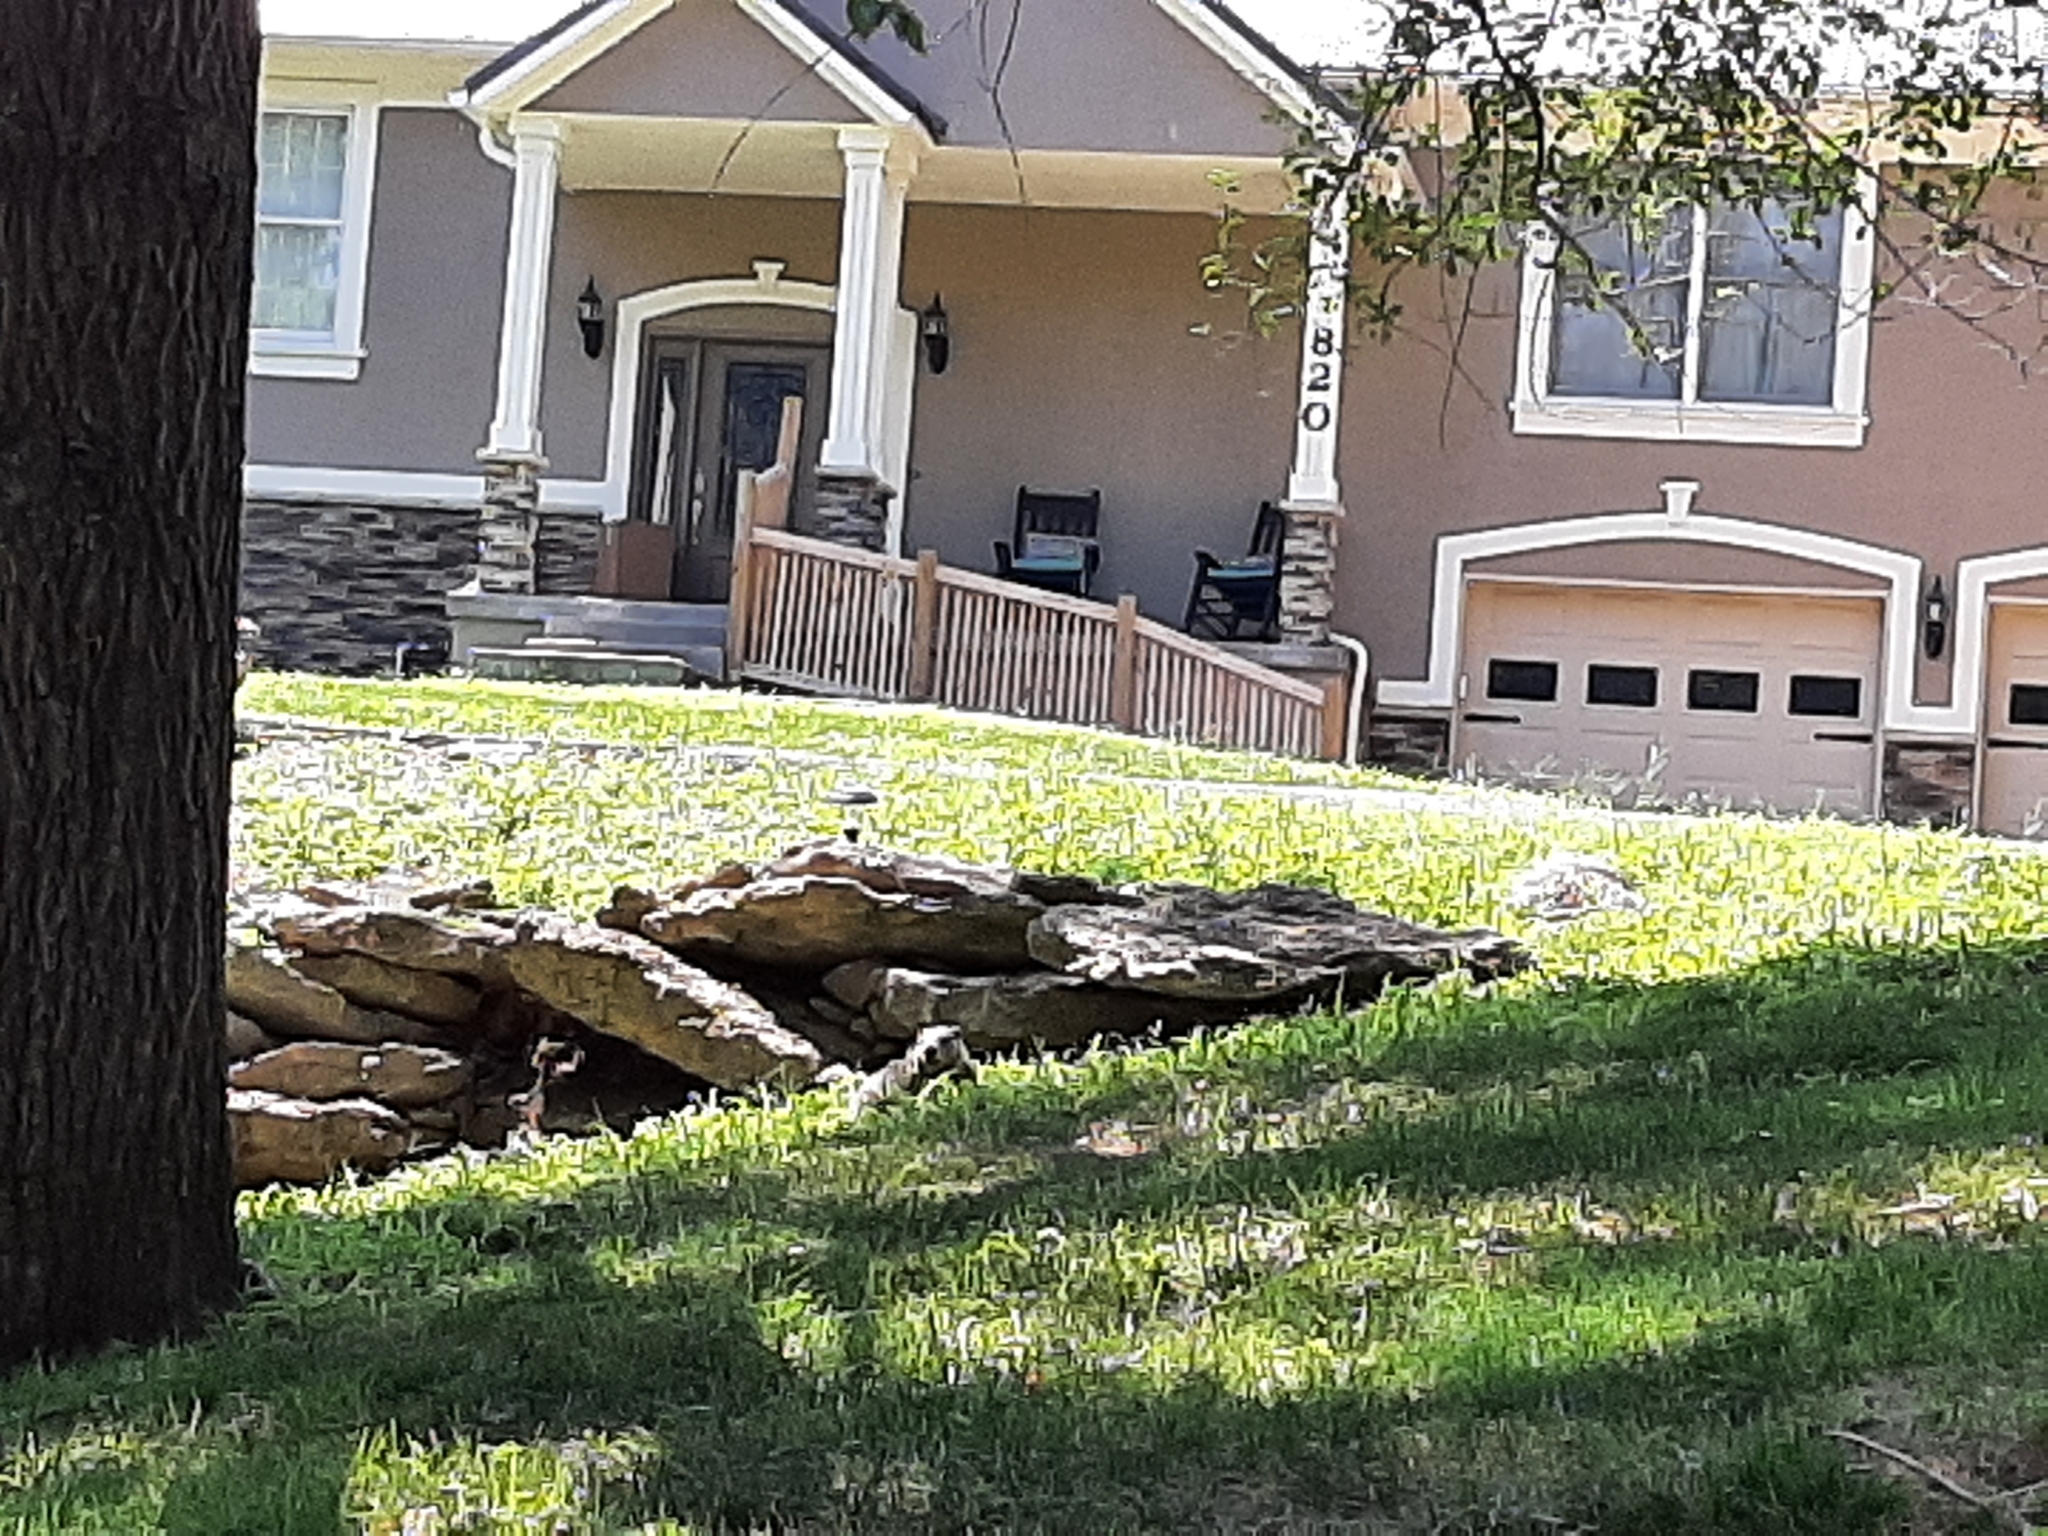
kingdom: Animalia
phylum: Chordata
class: Mammalia
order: Rodentia
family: Sciuridae
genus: Marmota
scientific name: Marmota monax
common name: Groundhog
